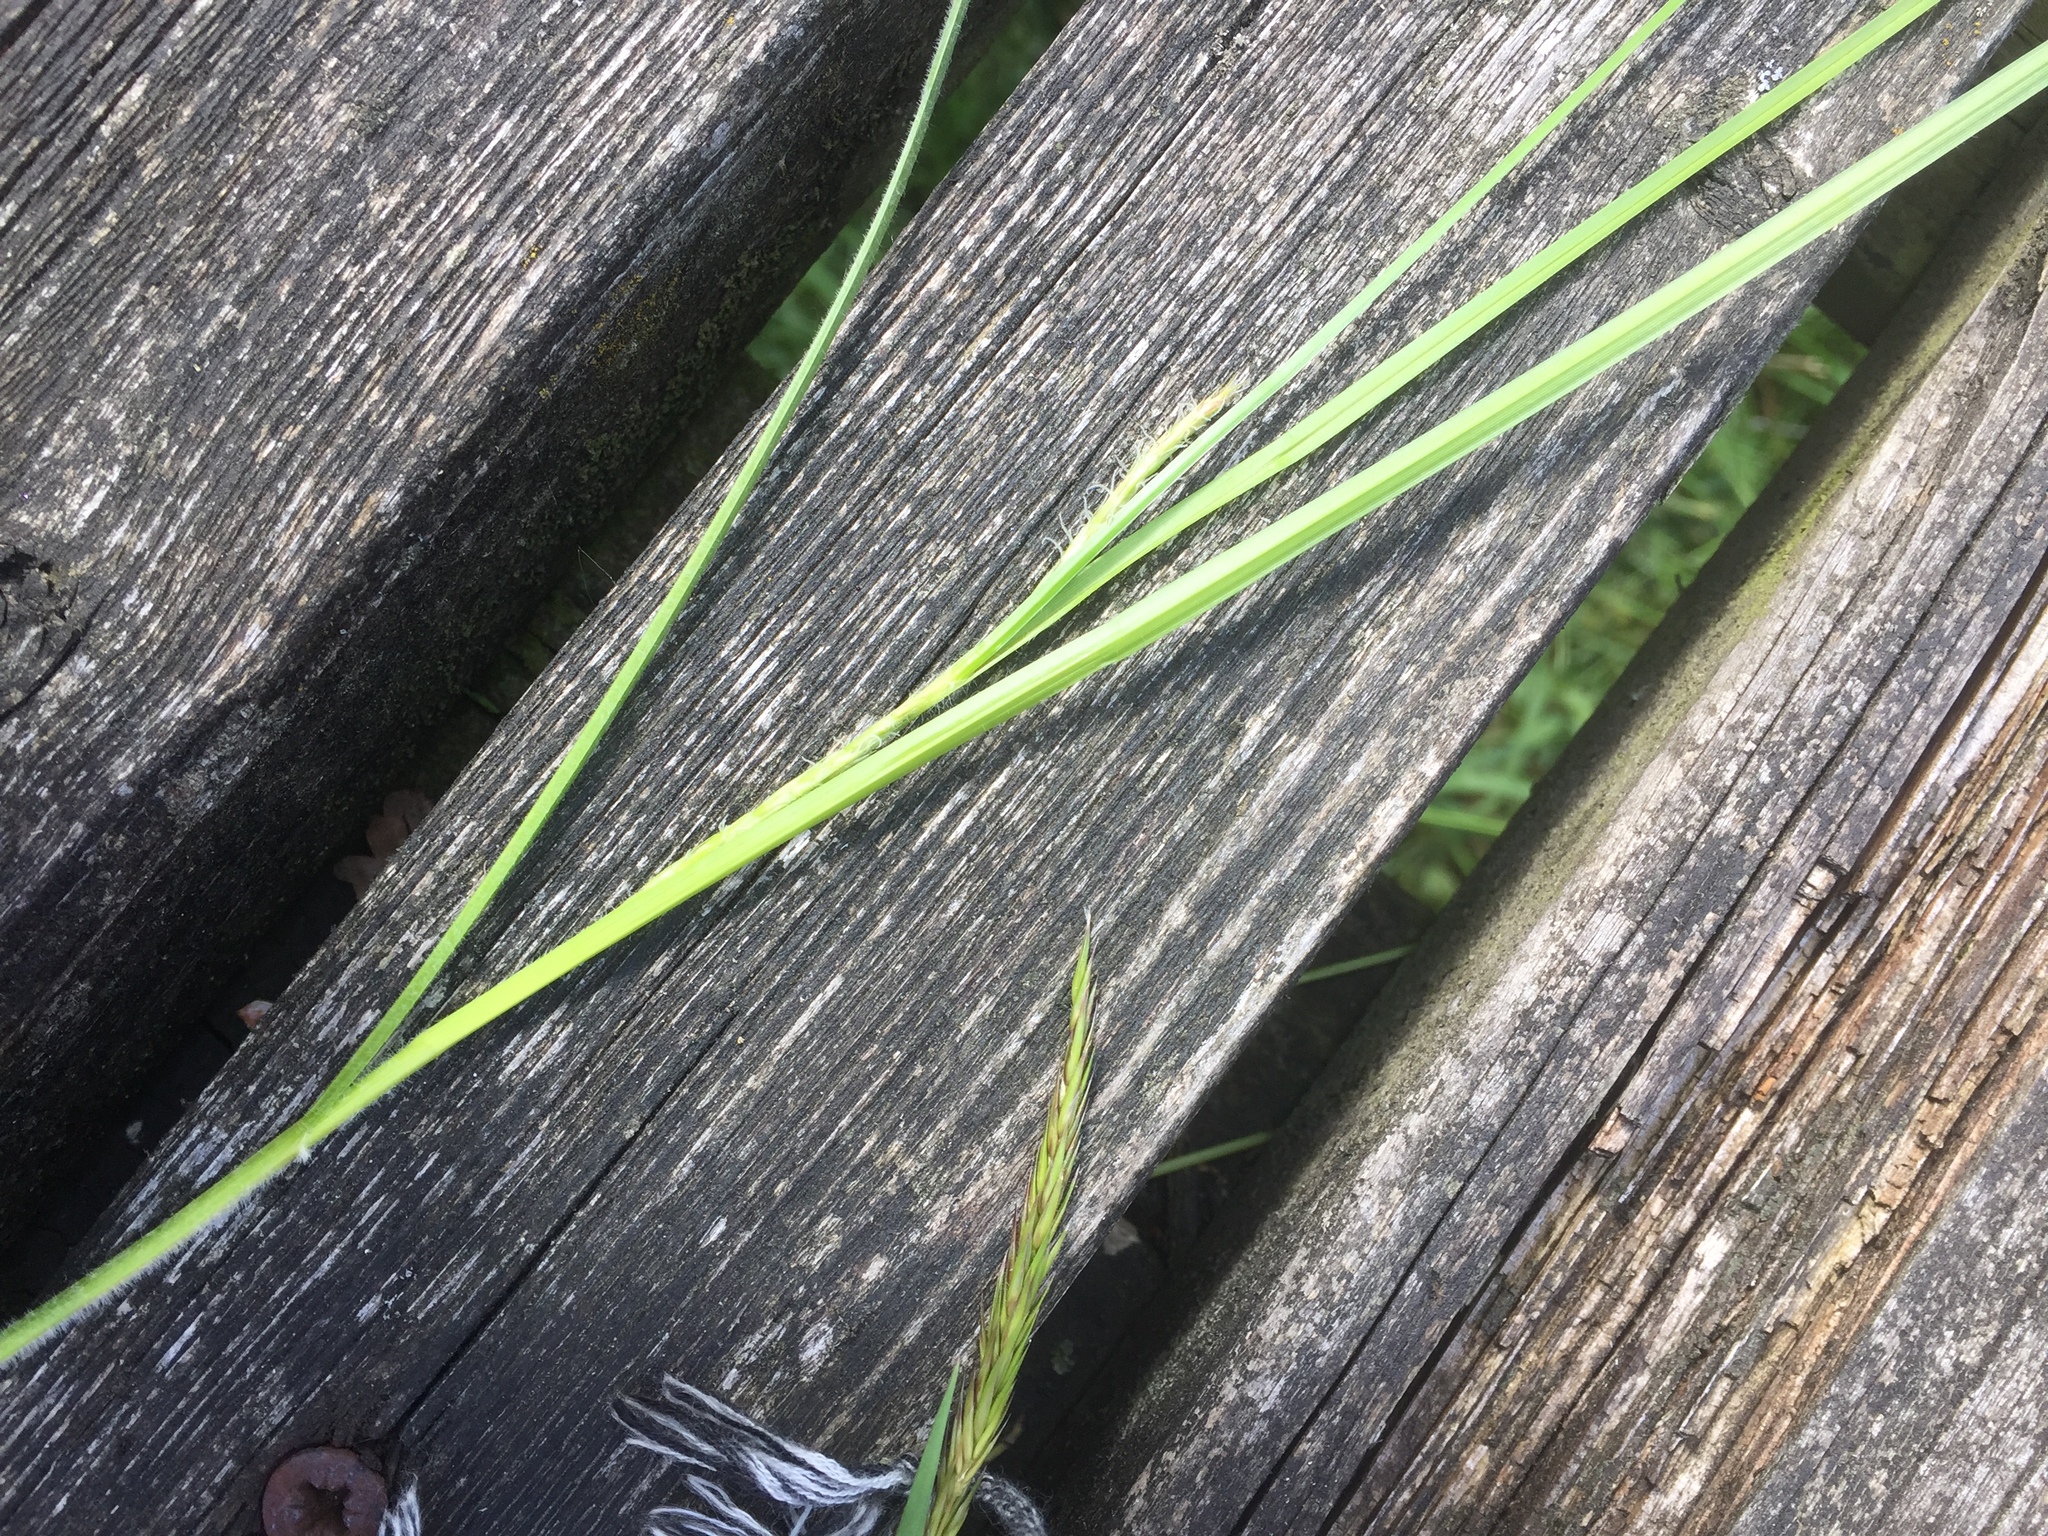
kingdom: Plantae
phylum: Tracheophyta
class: Liliopsida
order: Poales
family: Cyperaceae
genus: Carex
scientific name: Carex hirta
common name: Hairy sedge
